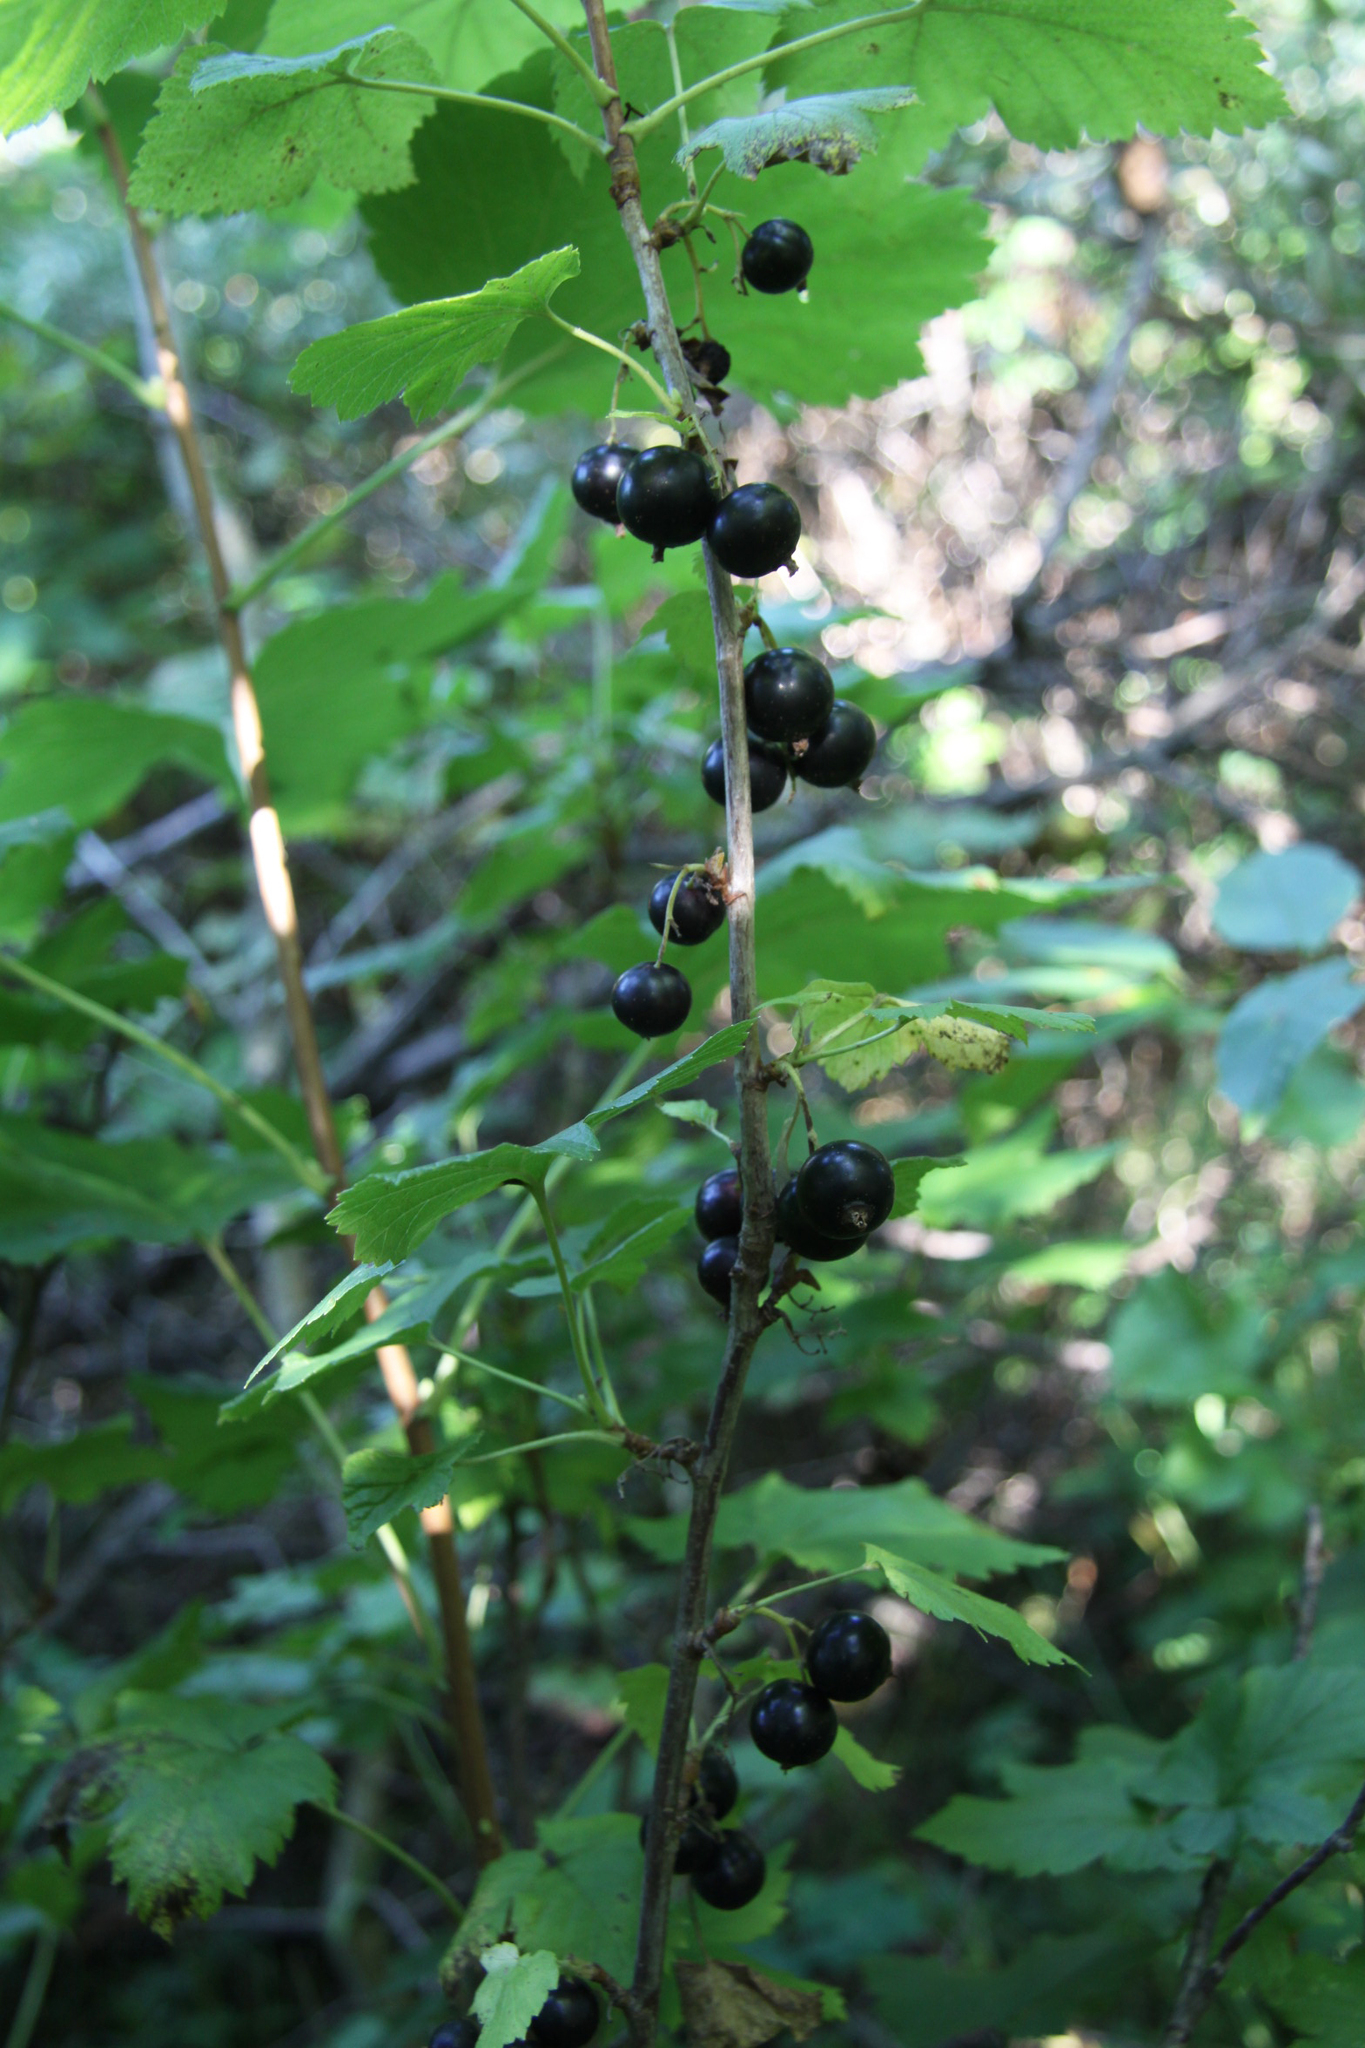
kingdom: Plantae
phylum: Tracheophyta
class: Magnoliopsida
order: Saxifragales
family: Grossulariaceae
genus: Ribes
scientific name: Ribes nigrum
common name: Black currant
